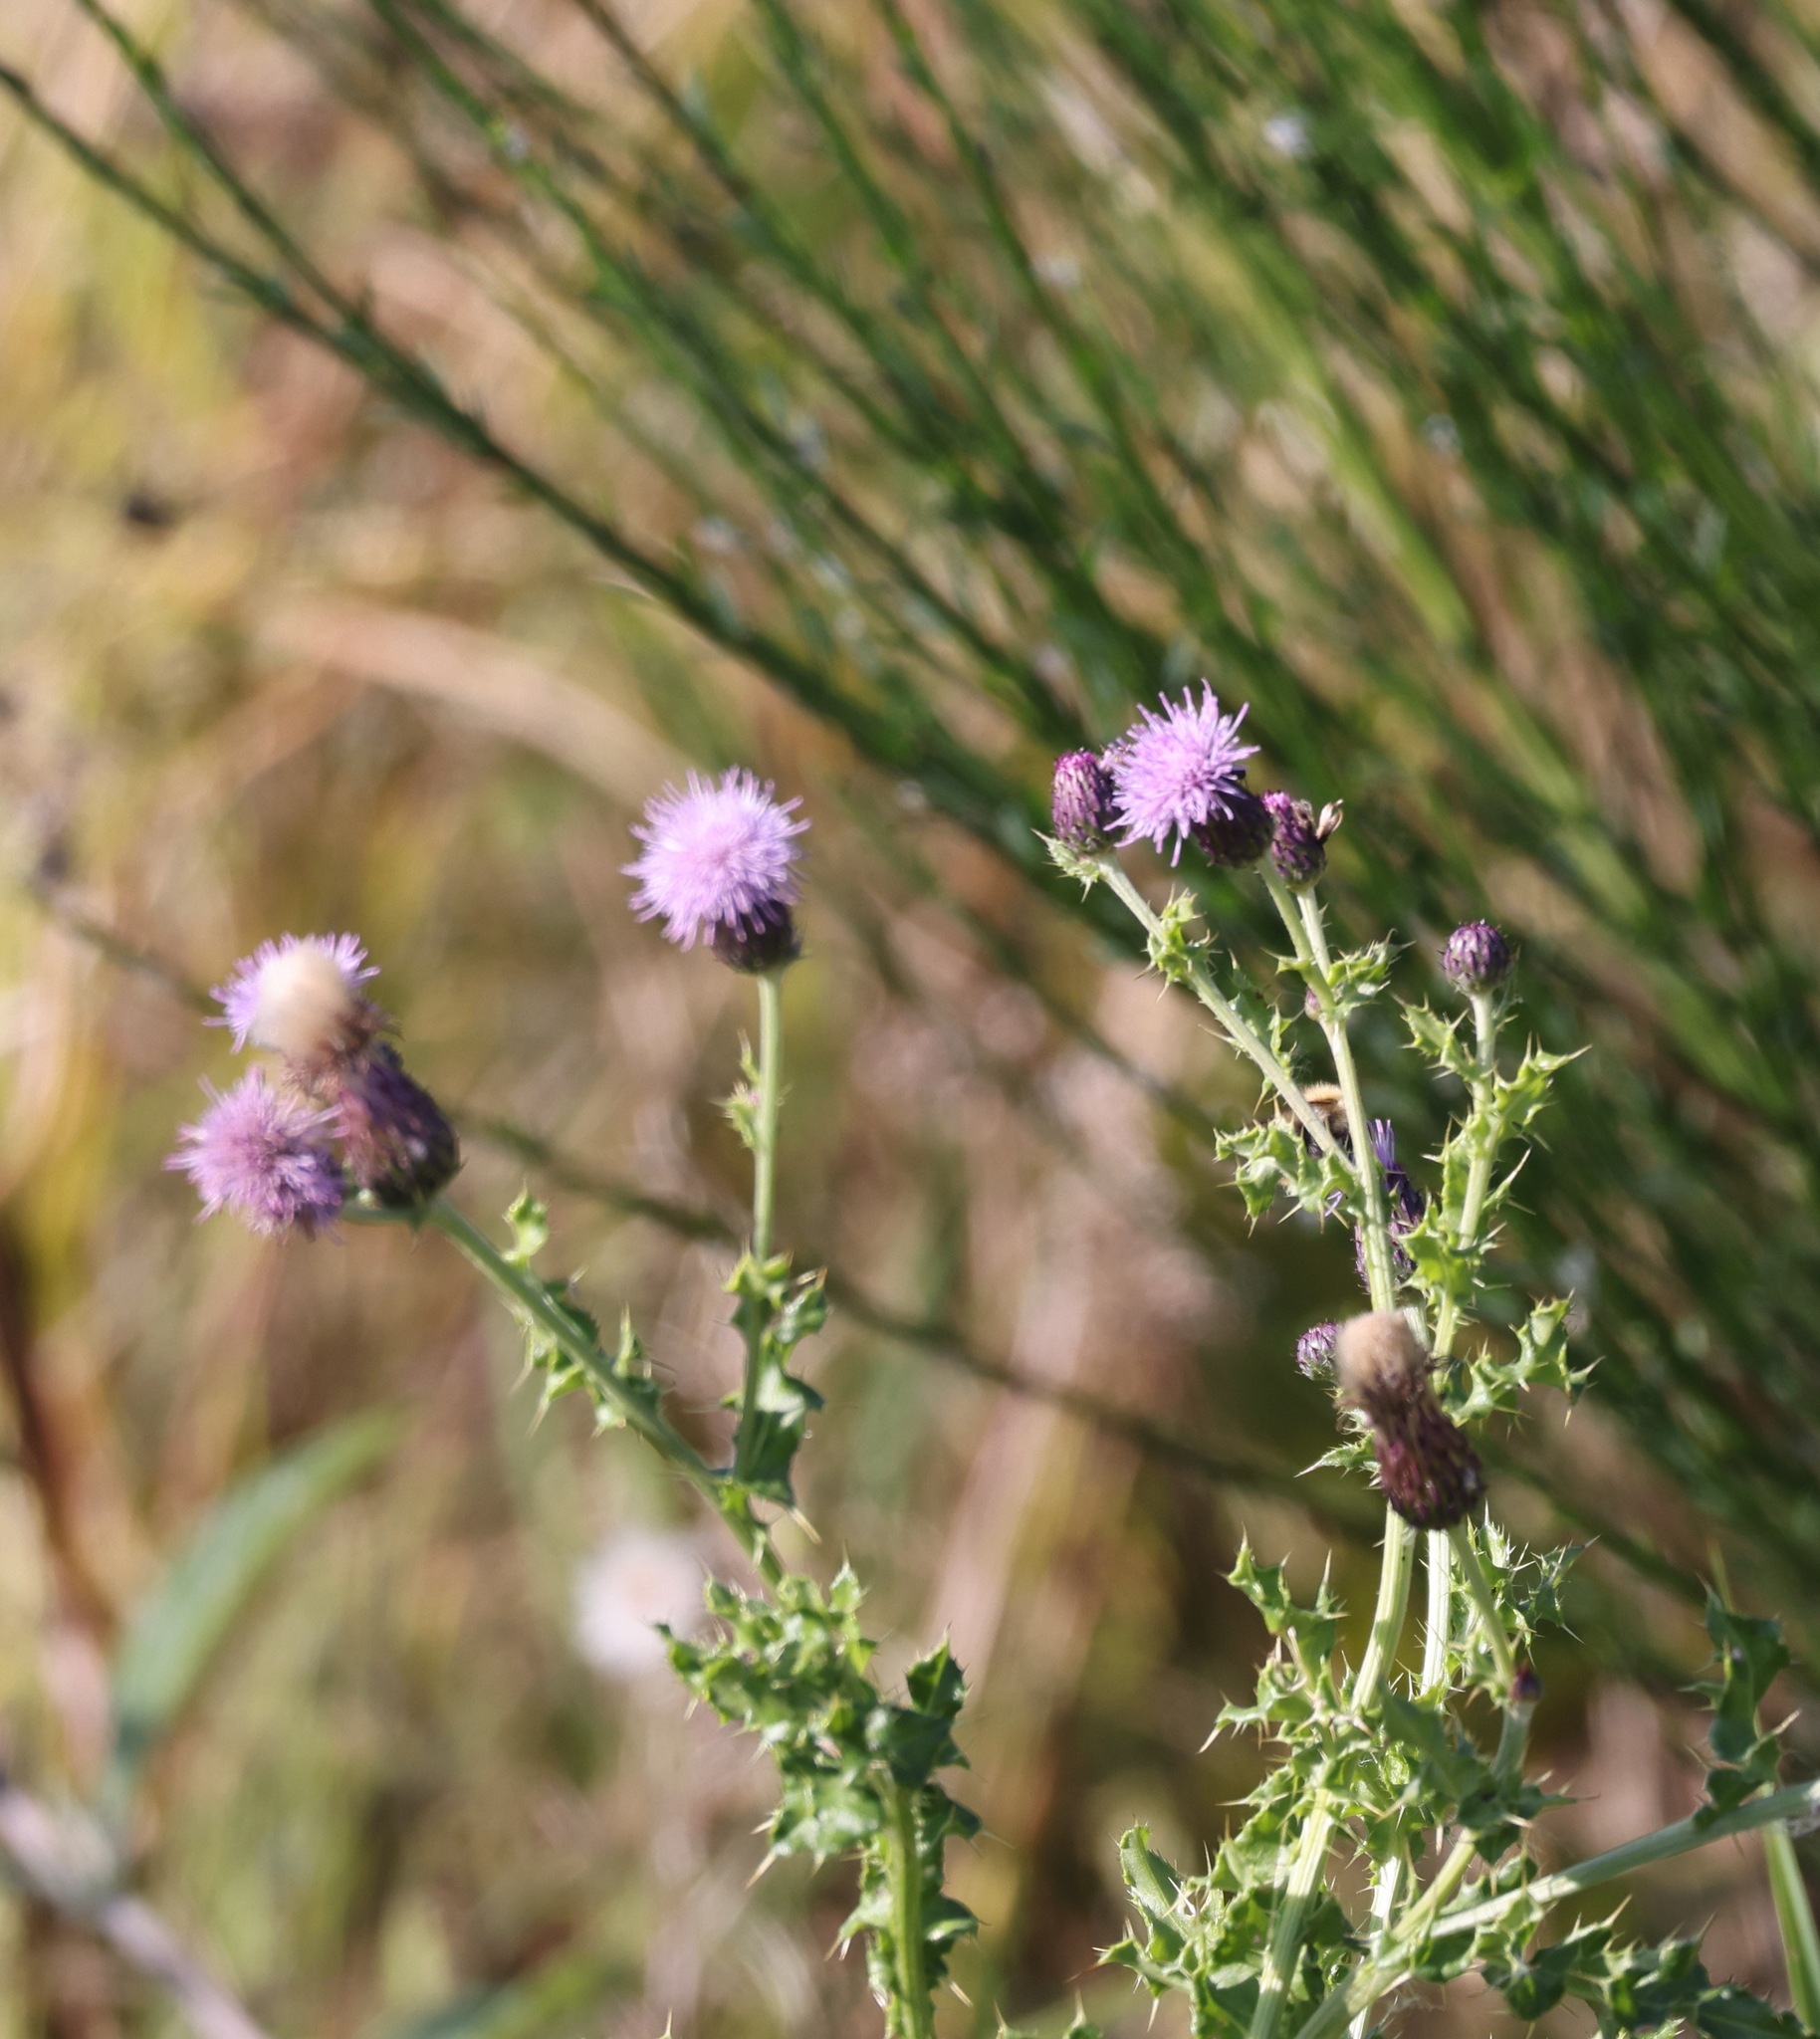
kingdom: Plantae
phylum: Tracheophyta
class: Magnoliopsida
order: Asterales
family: Asteraceae
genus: Cirsium
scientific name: Cirsium arvense
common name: Creeping thistle
